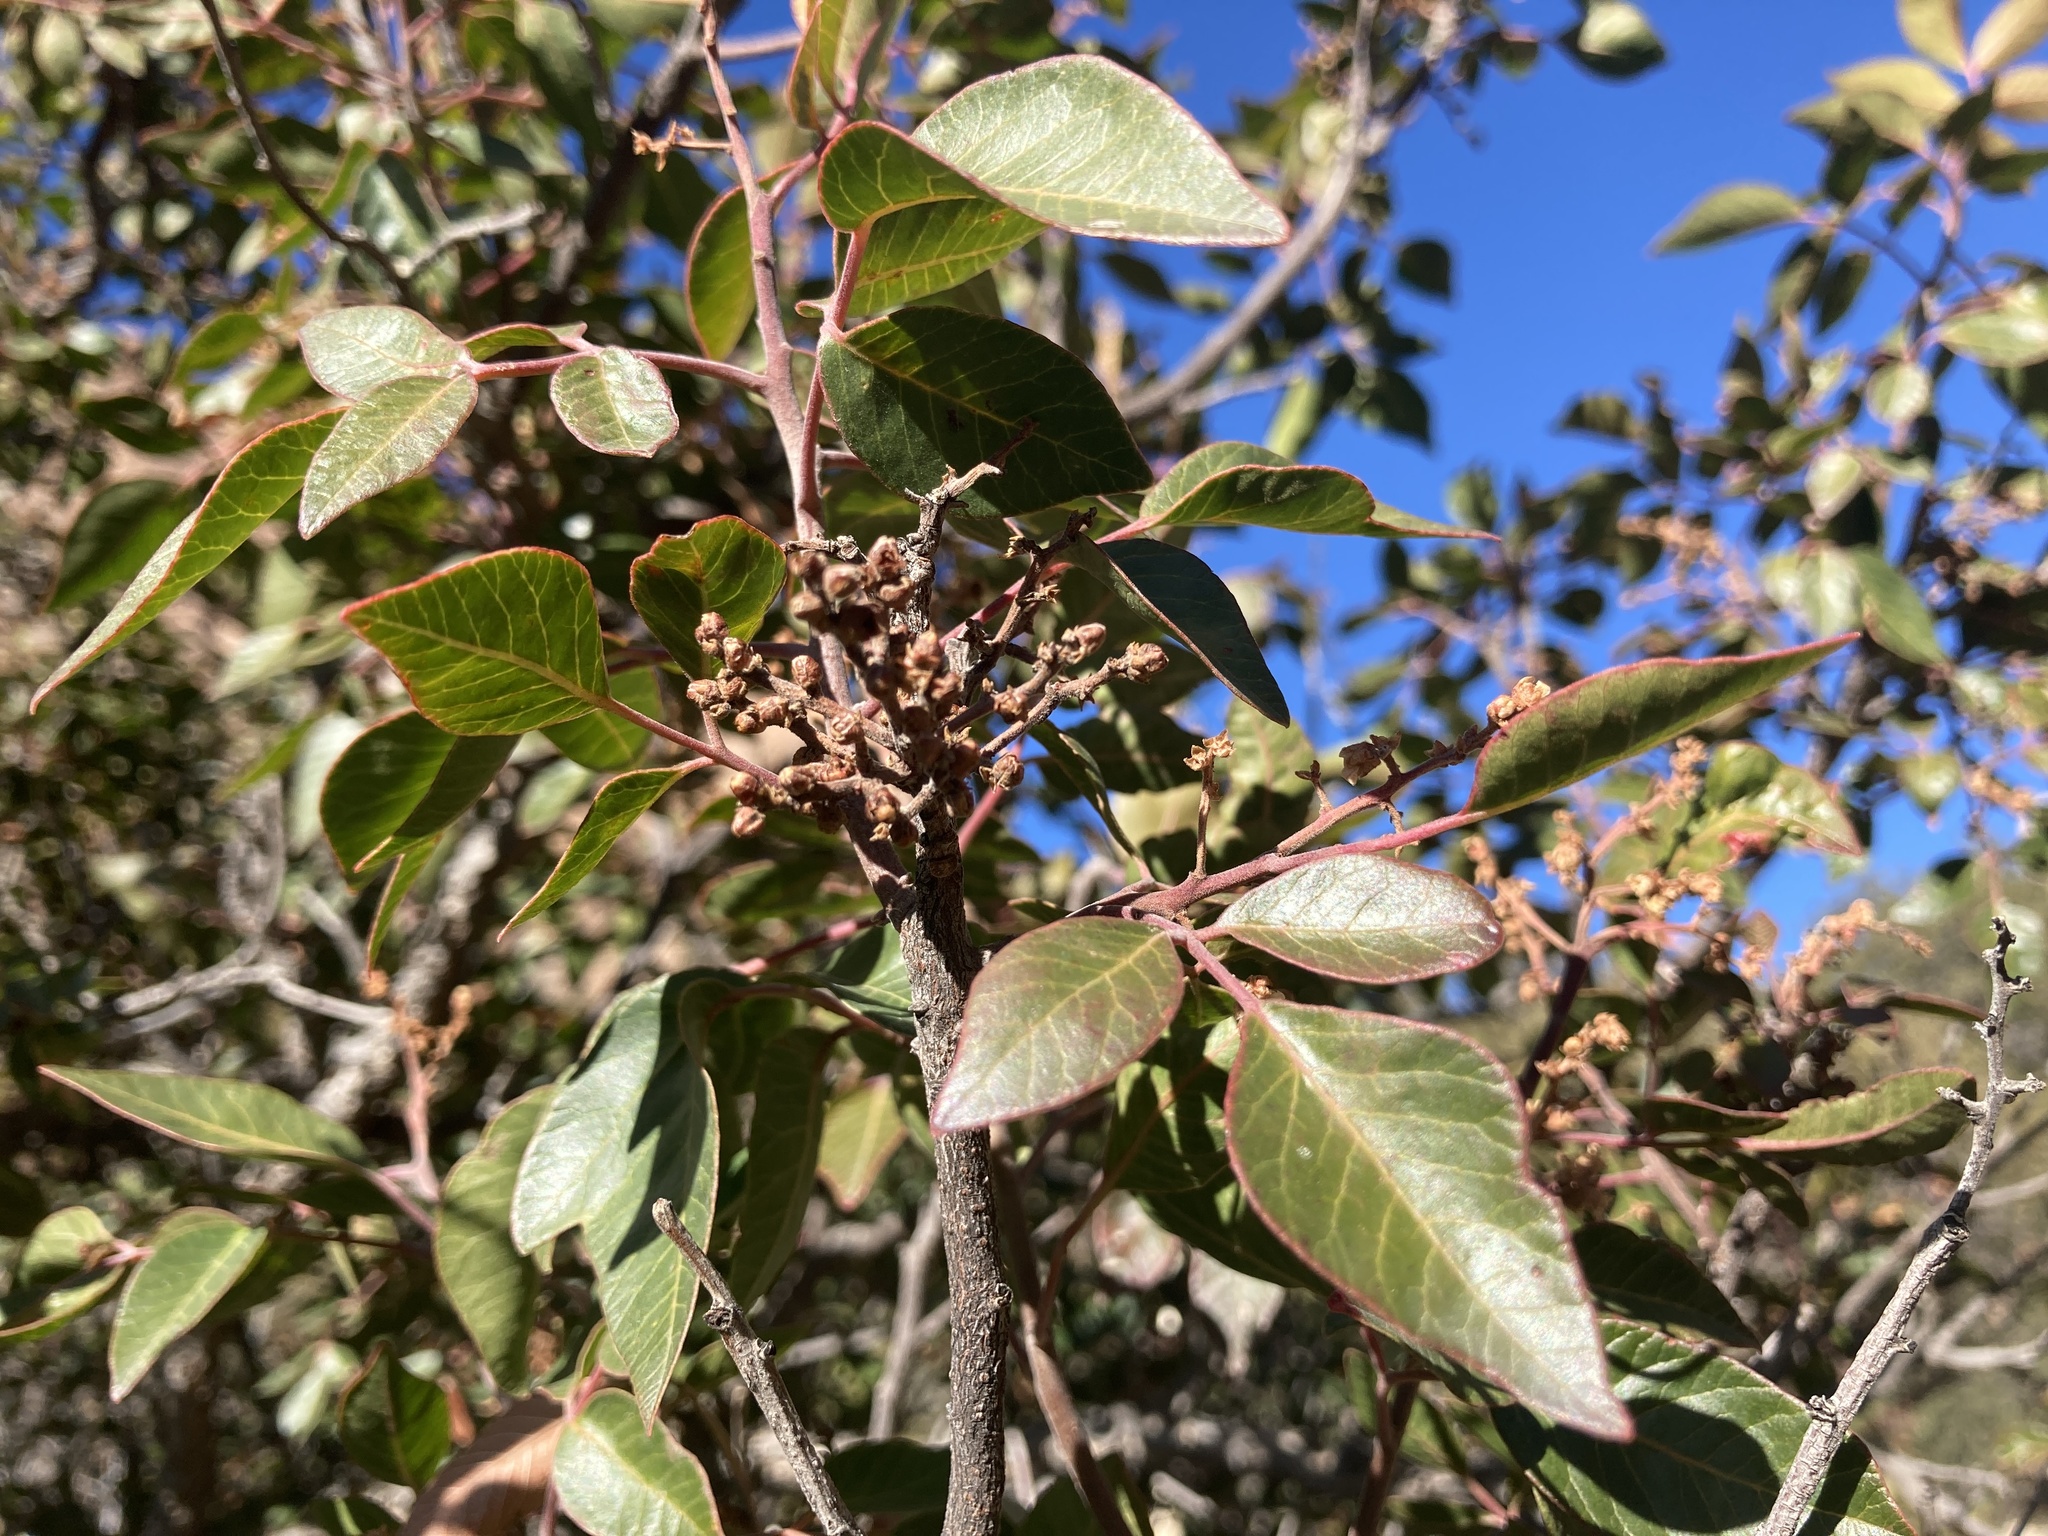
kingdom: Plantae
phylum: Tracheophyta
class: Magnoliopsida
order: Sapindales
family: Anacardiaceae
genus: Rhus
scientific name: Rhus virens
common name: Evergreen sumac
